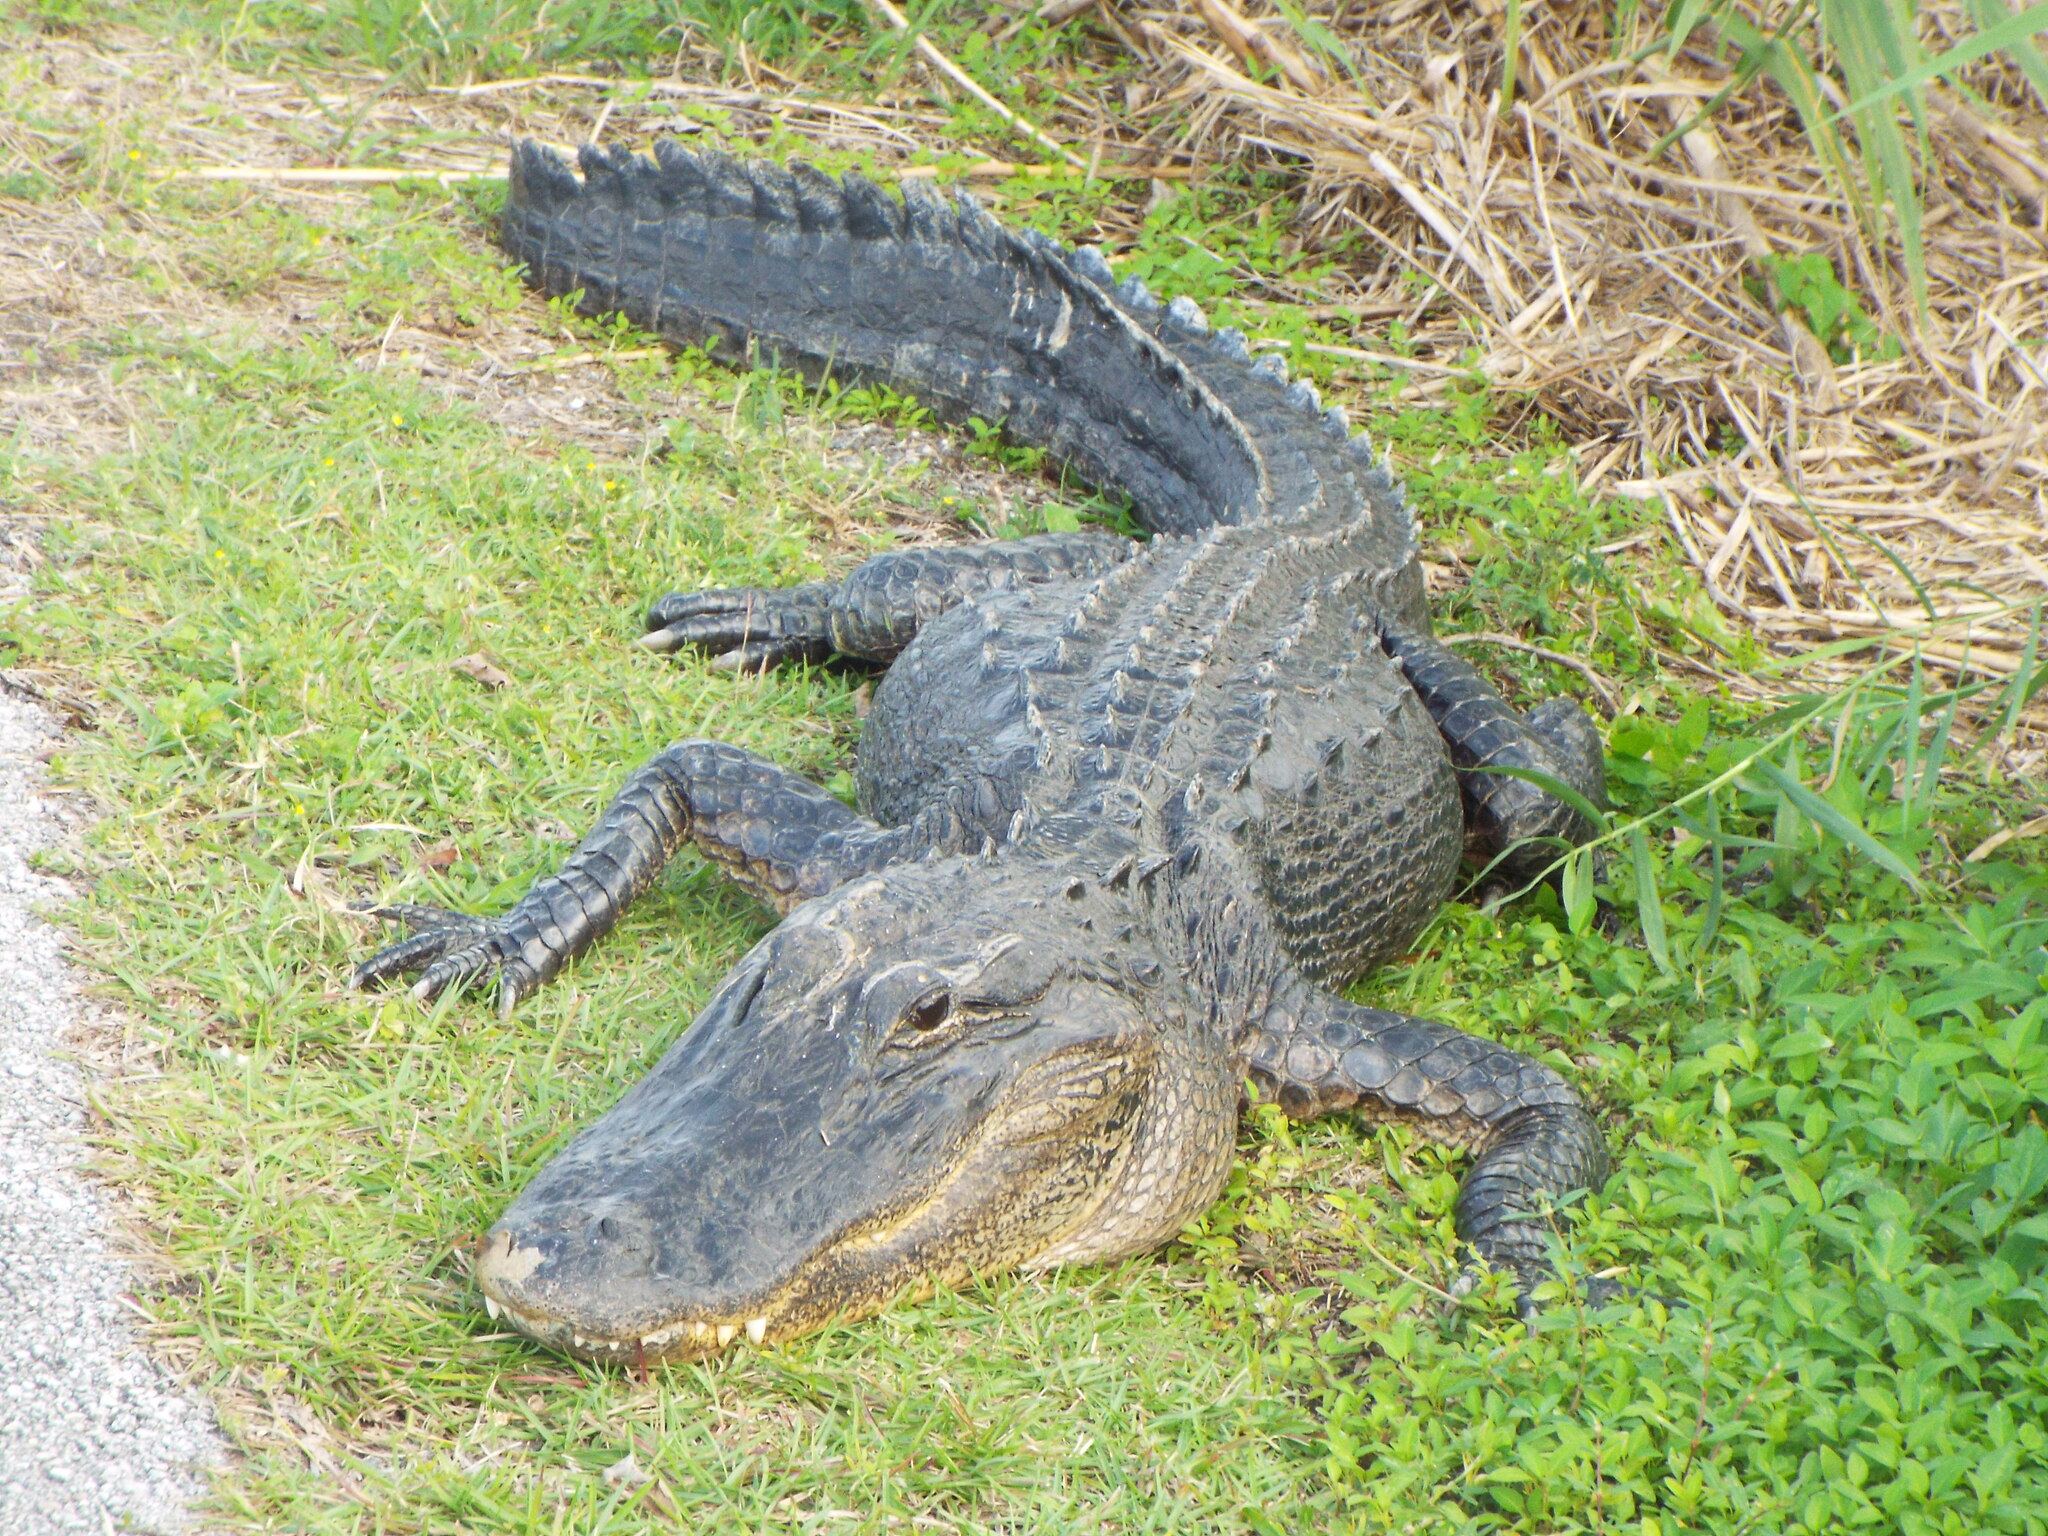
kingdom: Animalia
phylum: Chordata
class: Crocodylia
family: Alligatoridae
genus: Alligator
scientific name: Alligator mississippiensis
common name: American alligator
